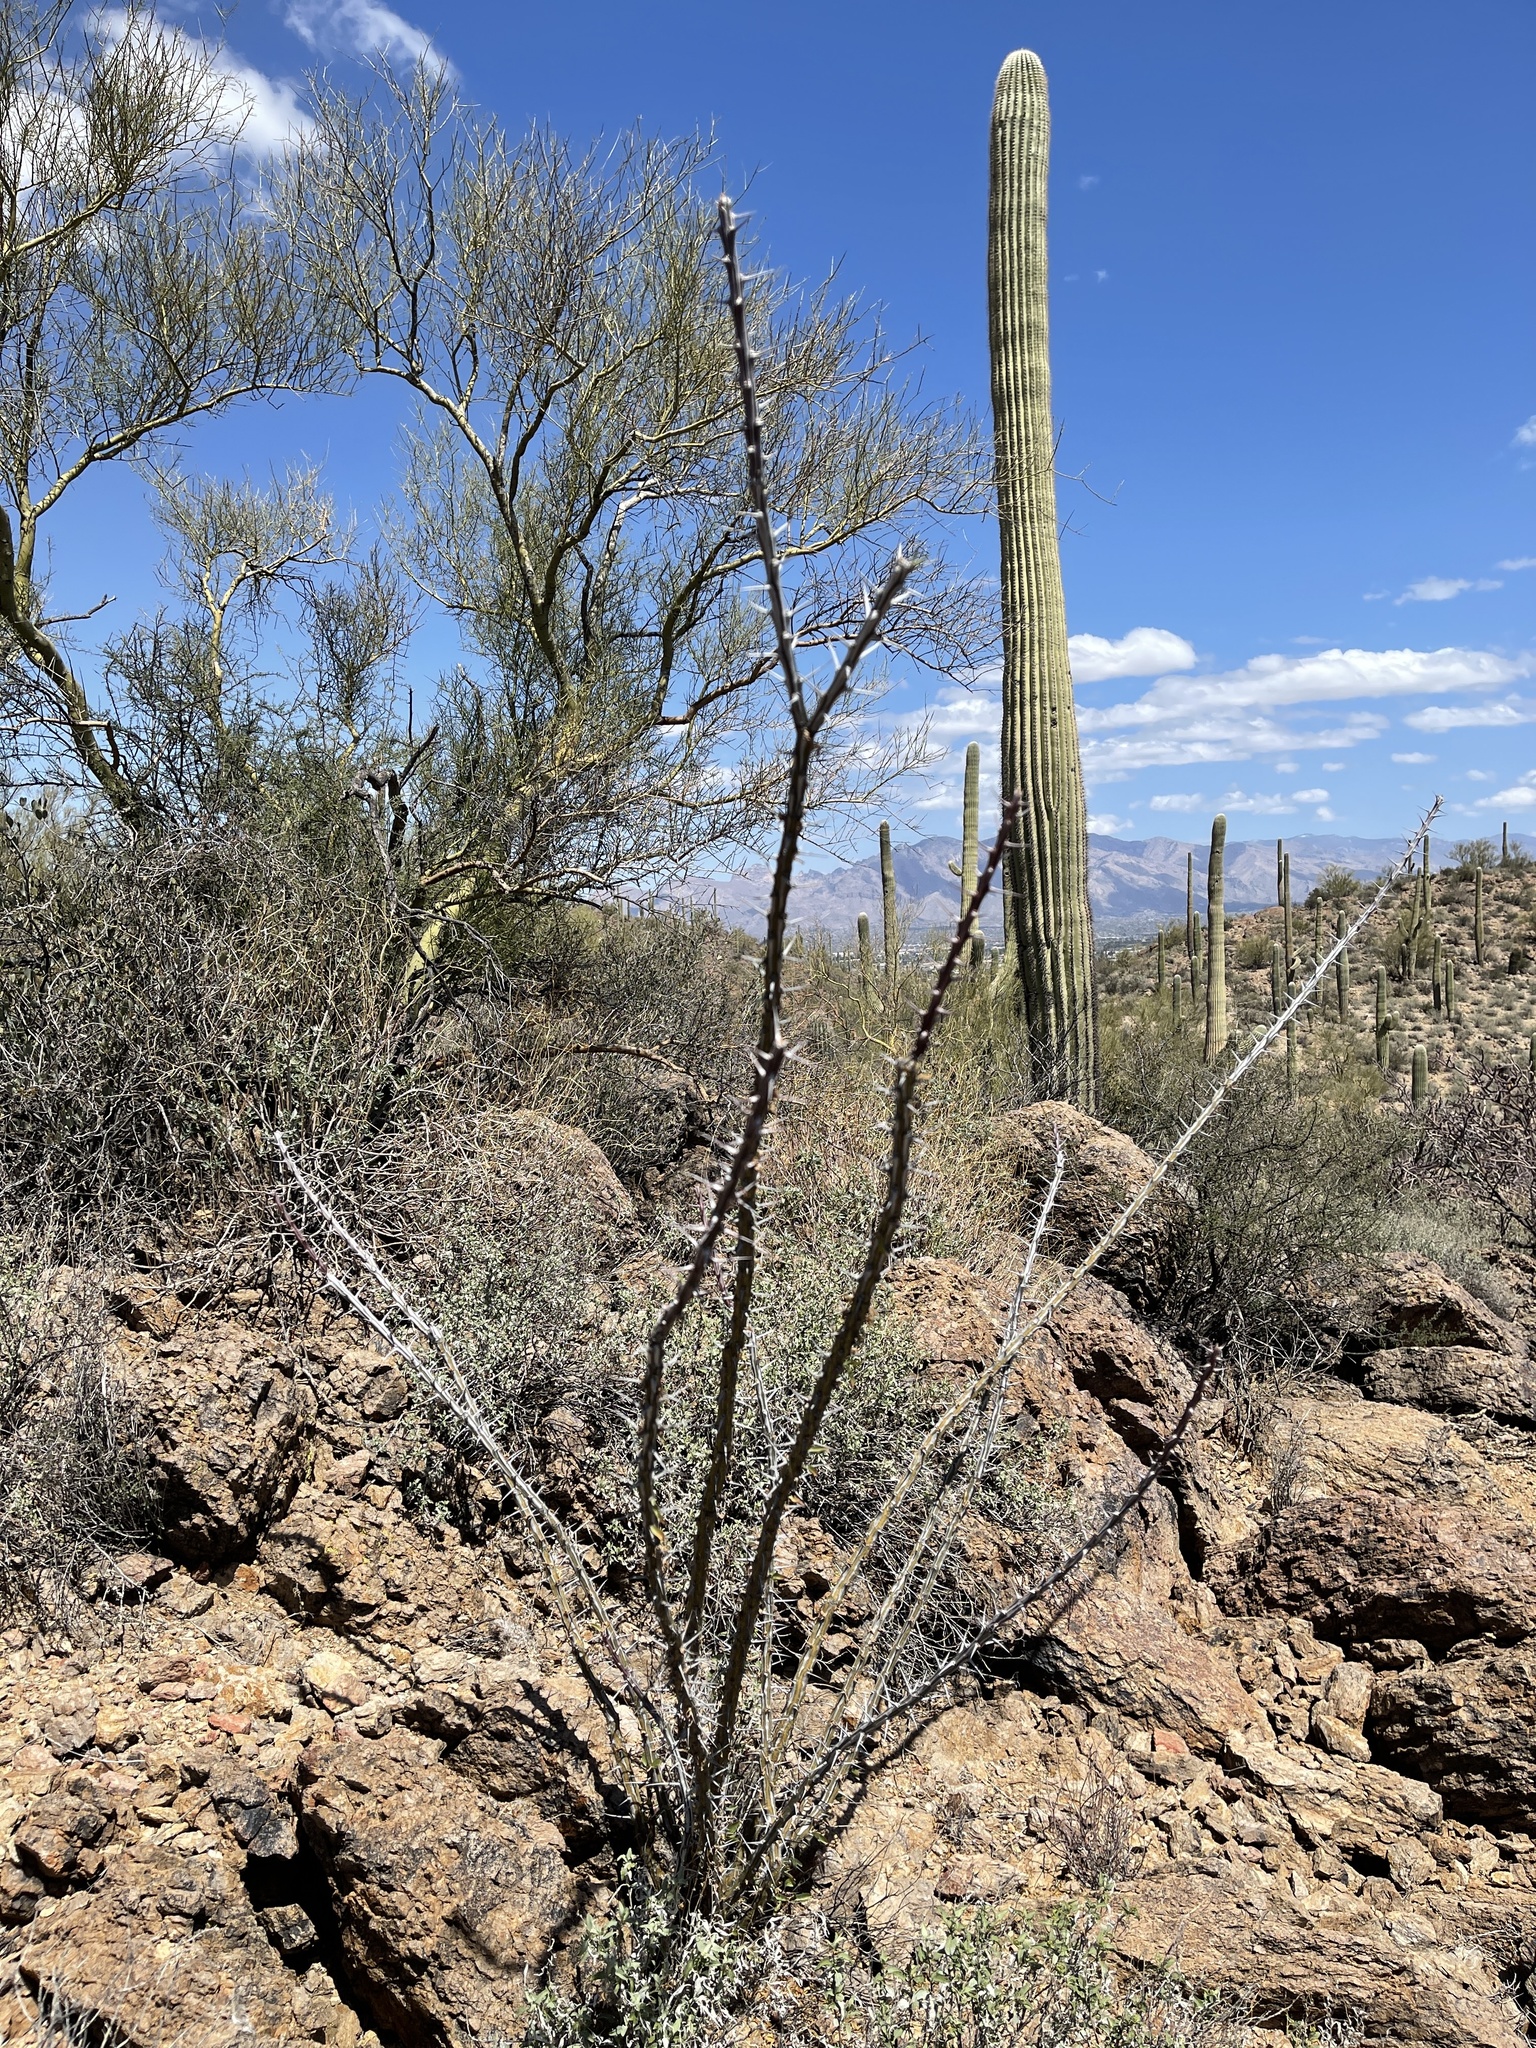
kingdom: Plantae
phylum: Tracheophyta
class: Magnoliopsida
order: Ericales
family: Fouquieriaceae
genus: Fouquieria
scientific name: Fouquieria splendens
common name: Vine-cactus
